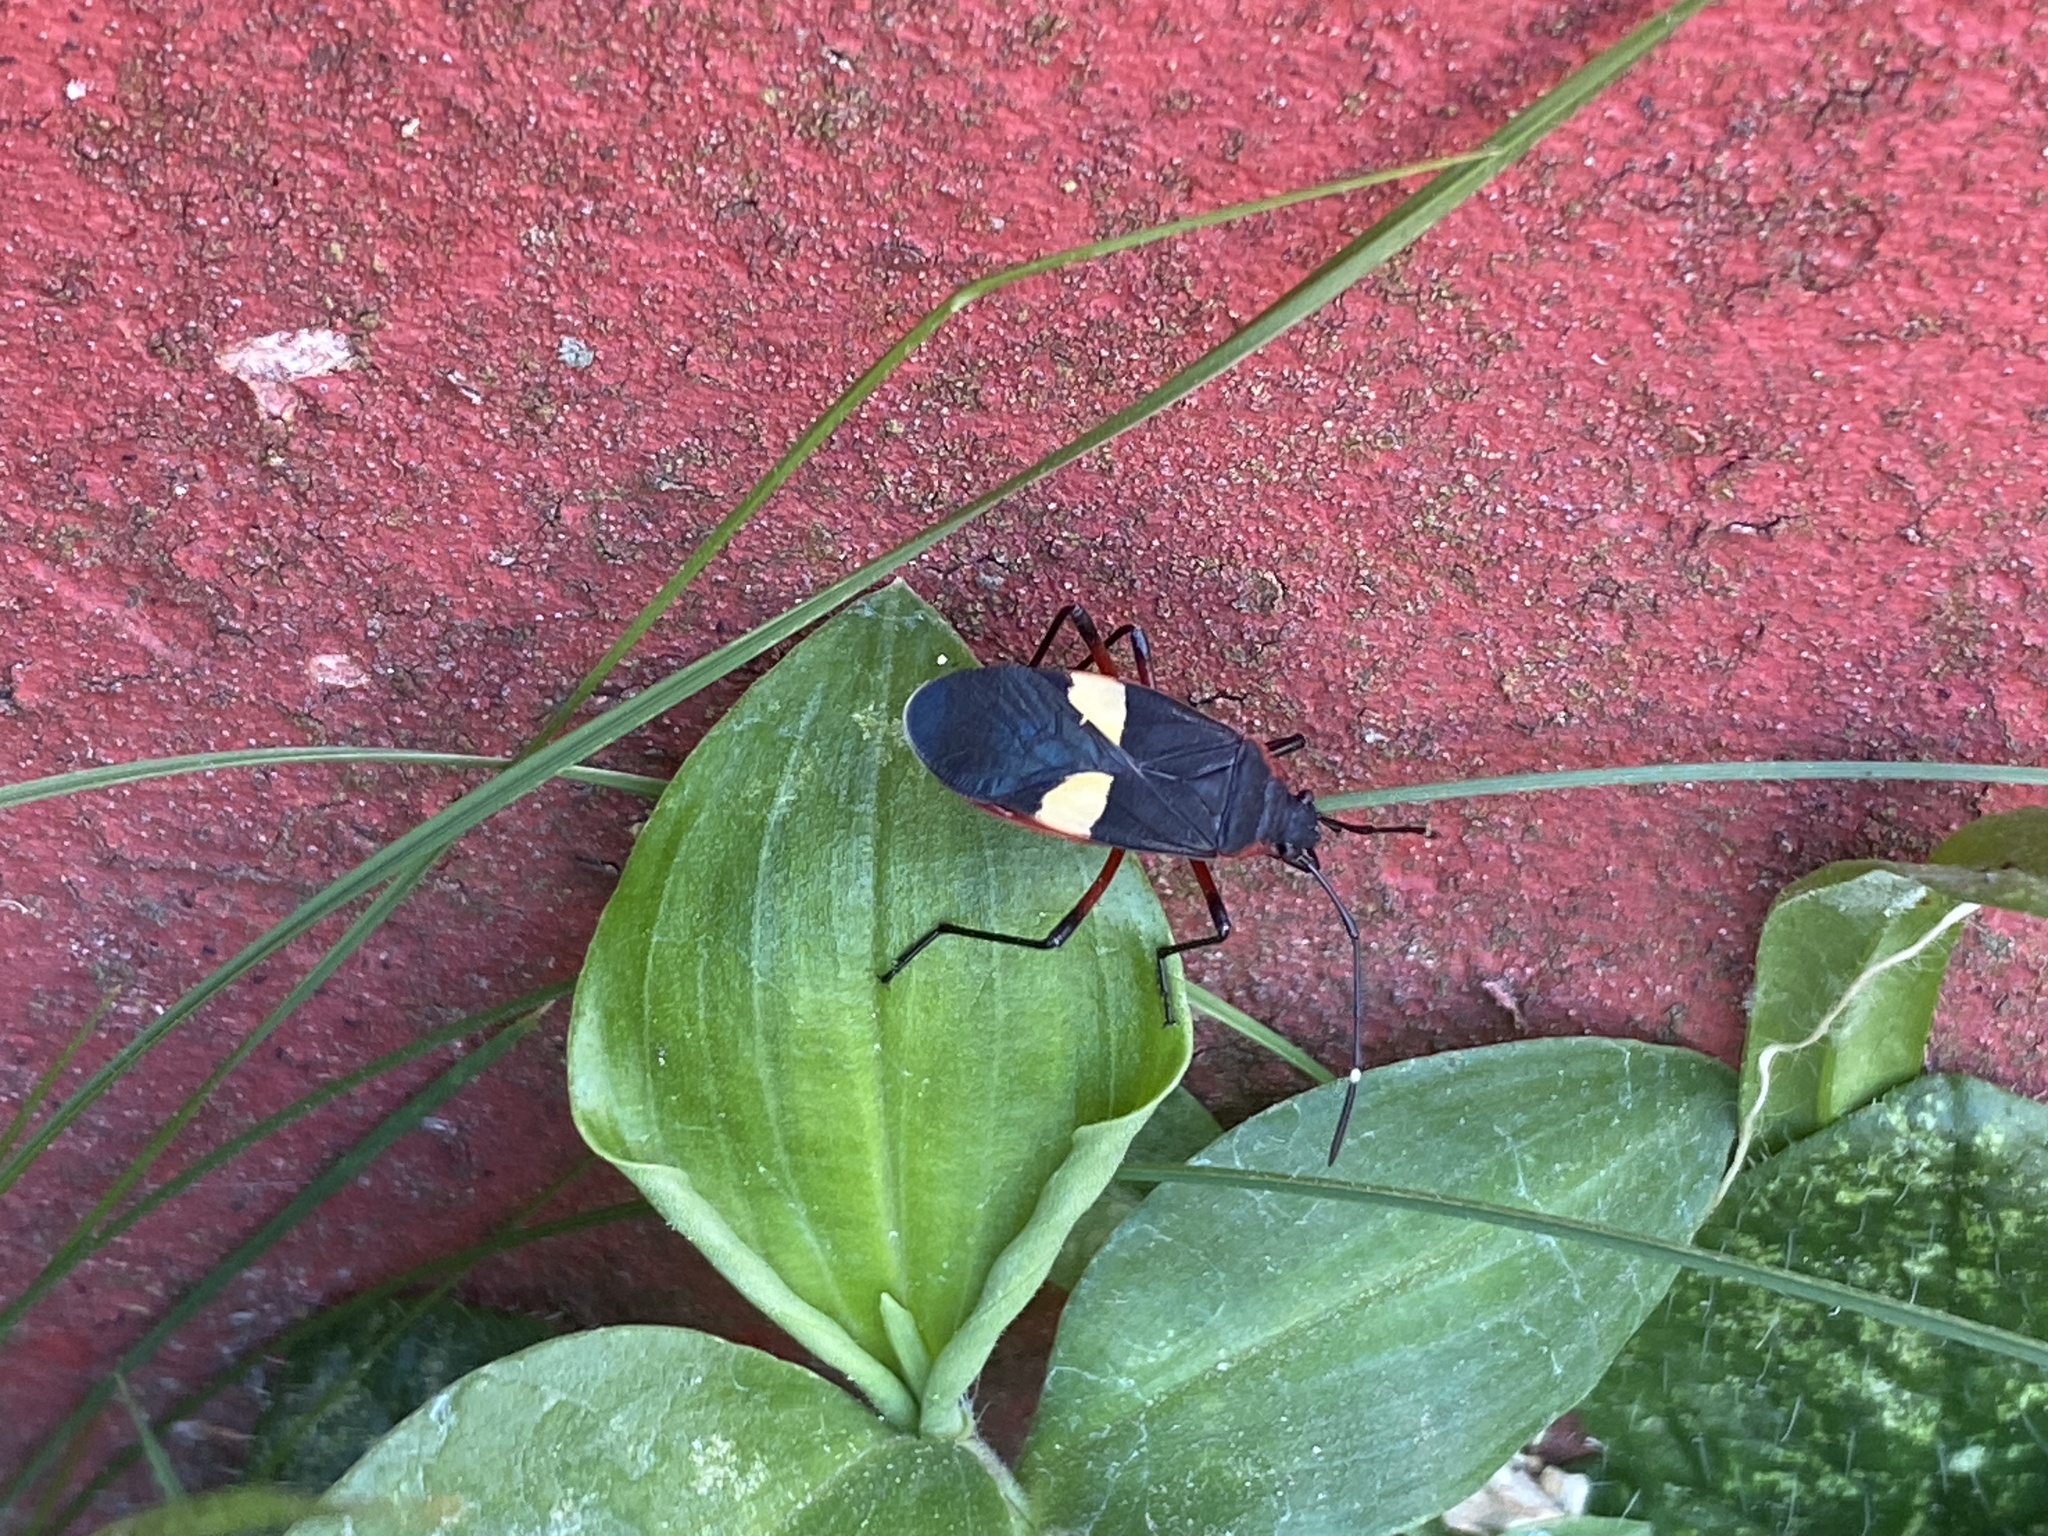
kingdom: Animalia
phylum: Arthropoda
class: Insecta
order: Hemiptera
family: Pyrrhocoridae
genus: Dysdercus
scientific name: Dysdercus albofasciatus
